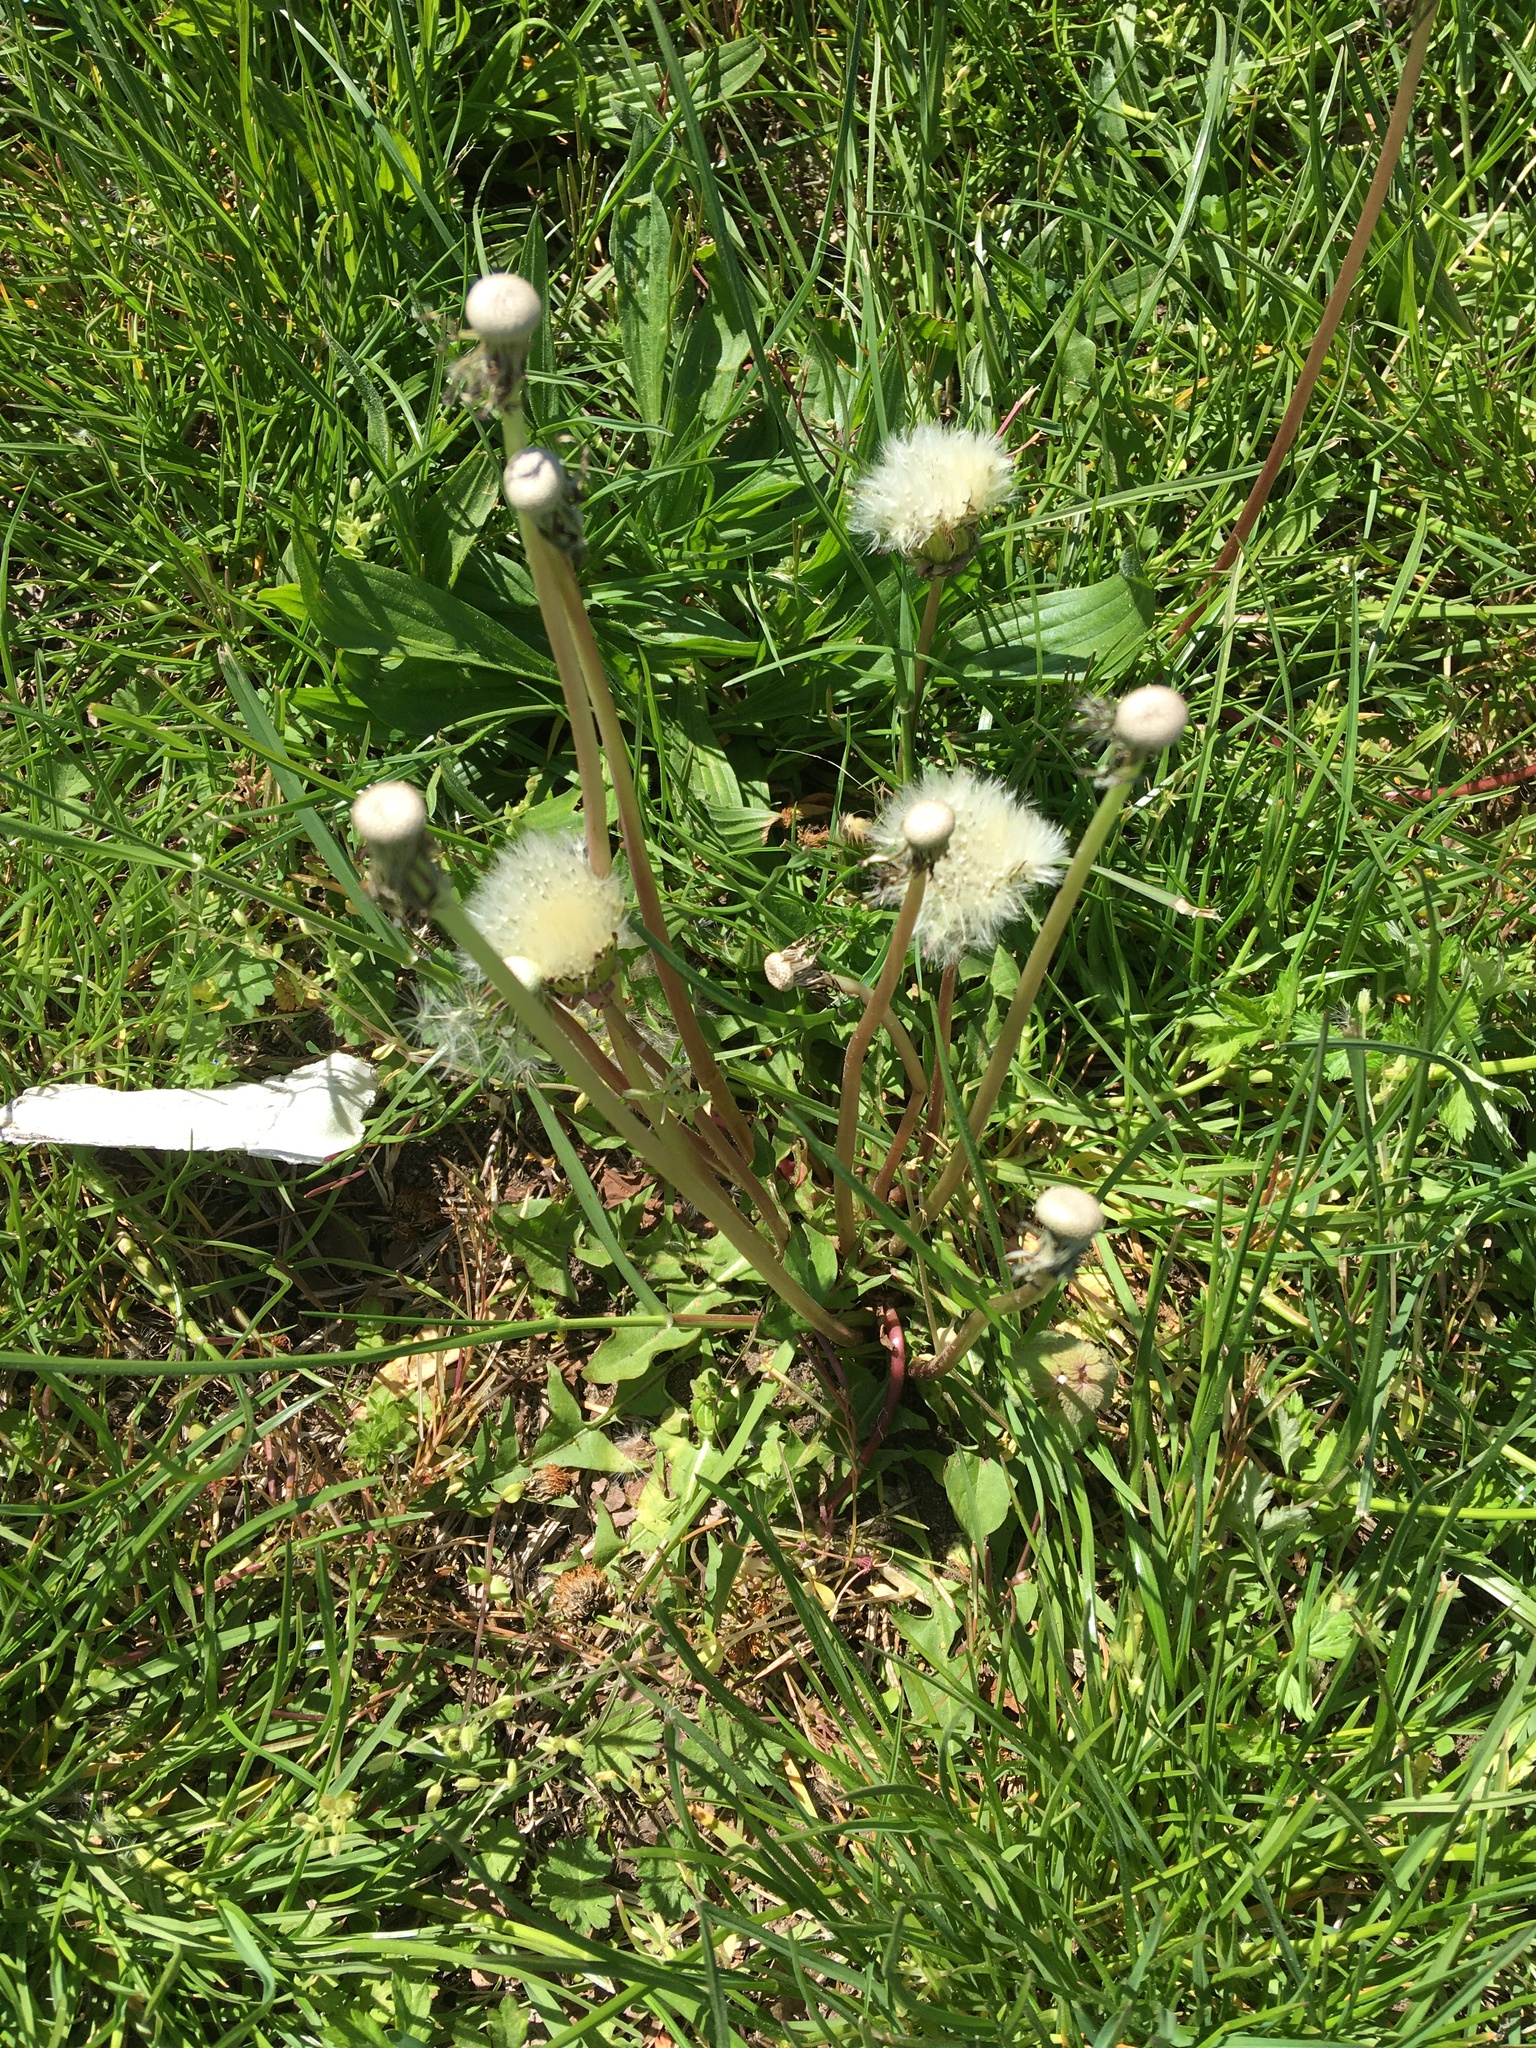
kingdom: Plantae
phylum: Tracheophyta
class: Magnoliopsida
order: Asterales
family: Asteraceae
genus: Taraxacum
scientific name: Taraxacum officinale
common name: Common dandelion
